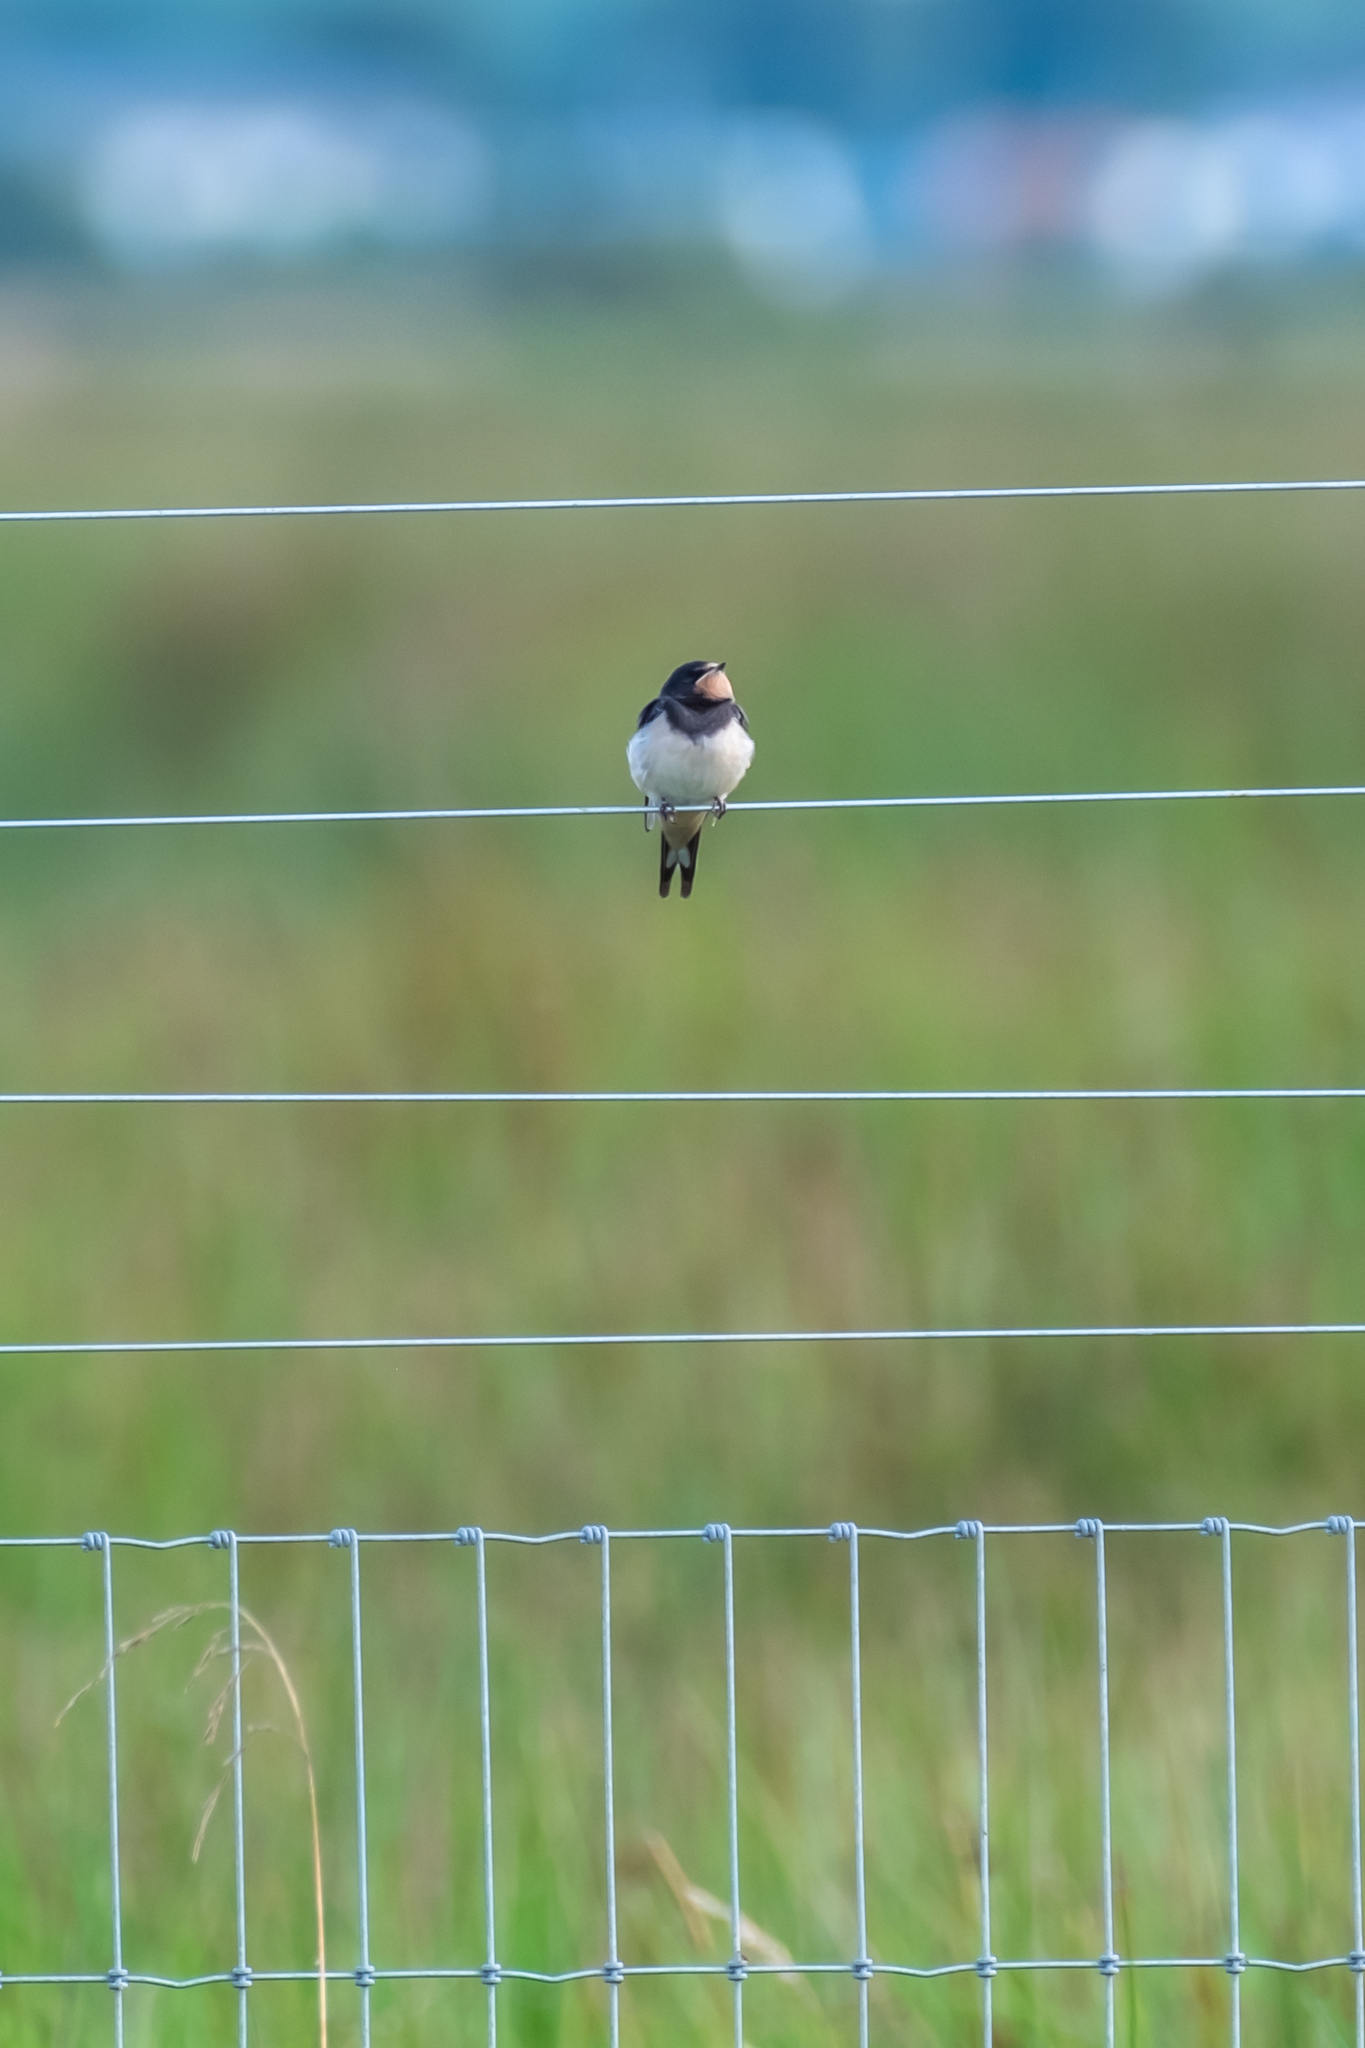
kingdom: Animalia
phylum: Chordata
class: Aves
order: Passeriformes
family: Hirundinidae
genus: Hirundo
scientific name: Hirundo rustica
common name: Barn swallow
